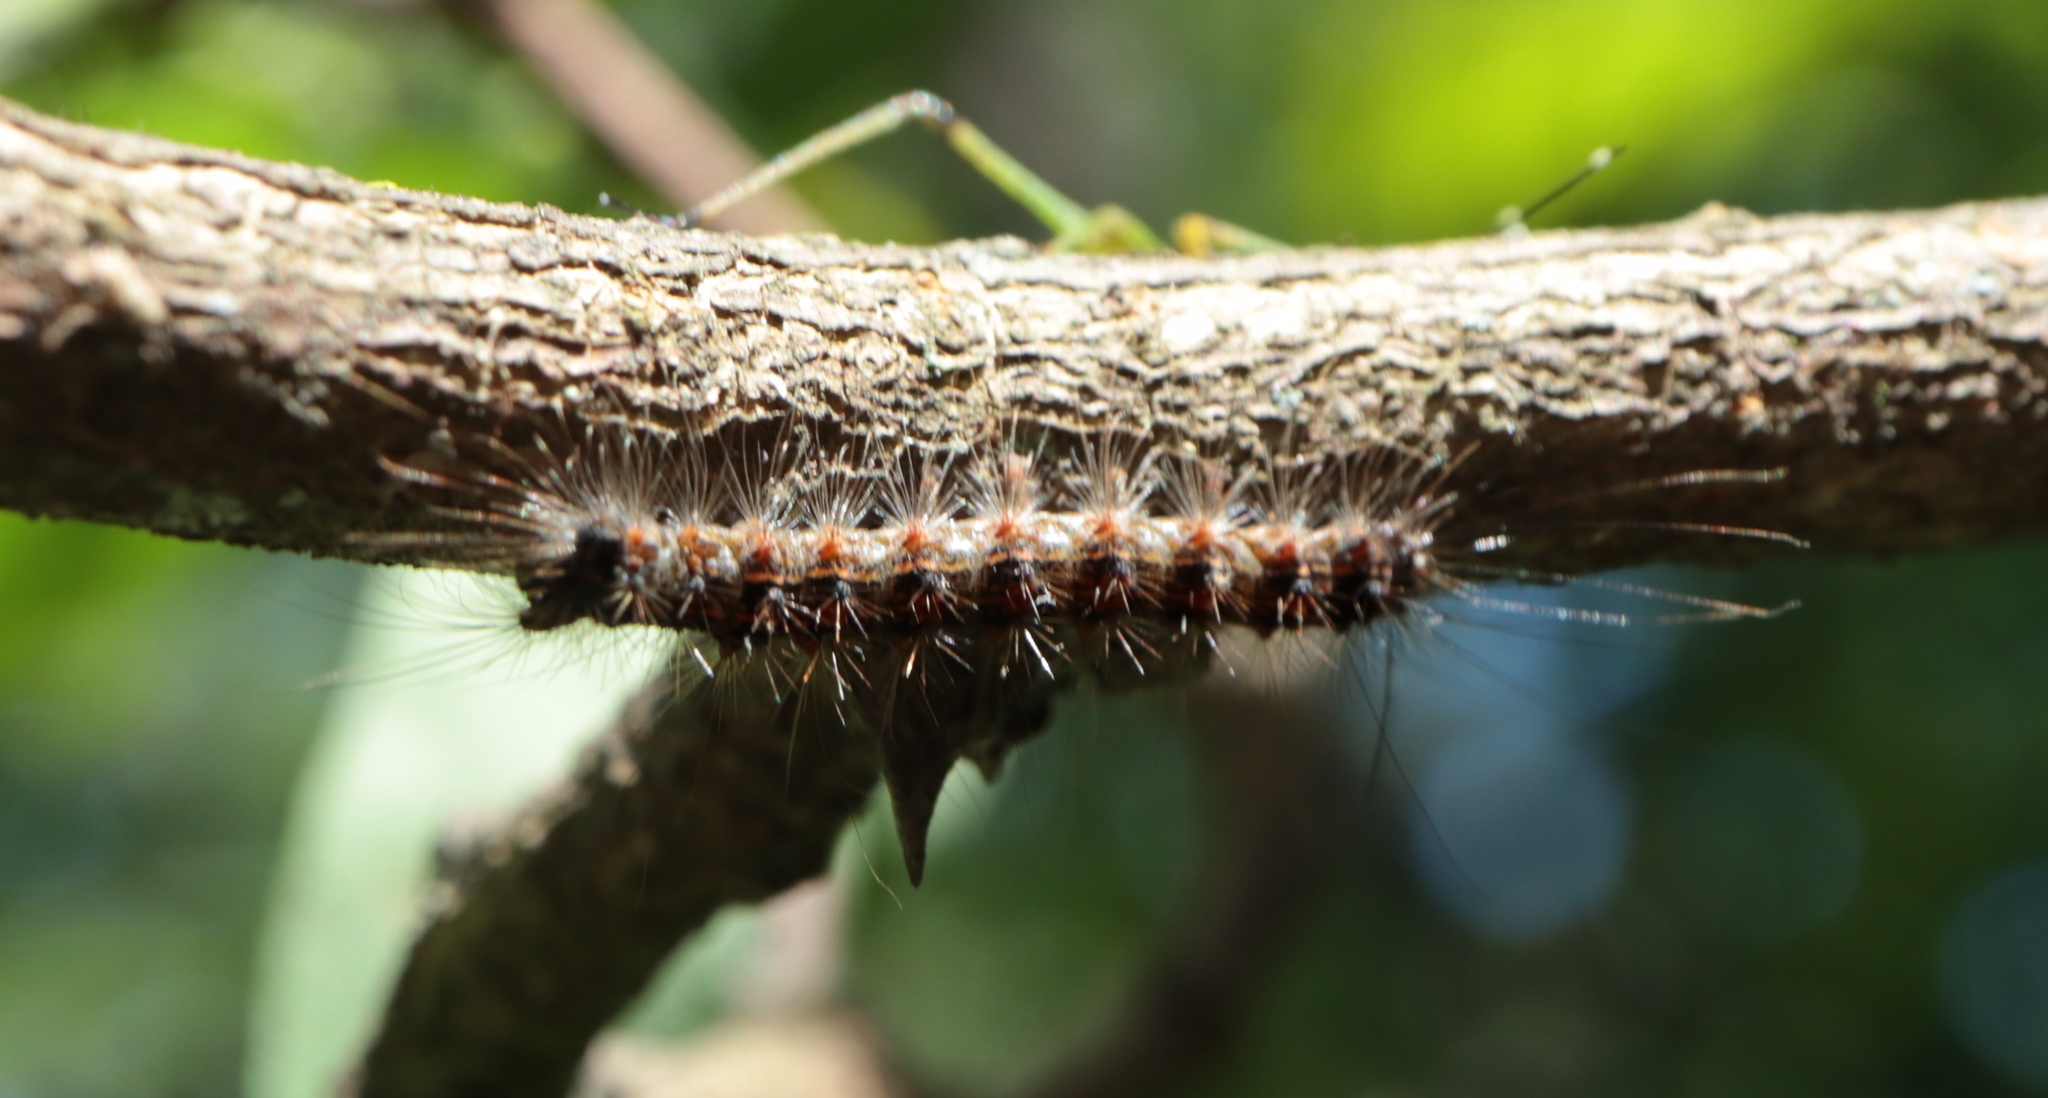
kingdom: Animalia
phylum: Arthropoda
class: Insecta
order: Lepidoptera
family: Erebidae
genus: Lymantria
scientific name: Lymantria dispar
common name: Gypsy moth
